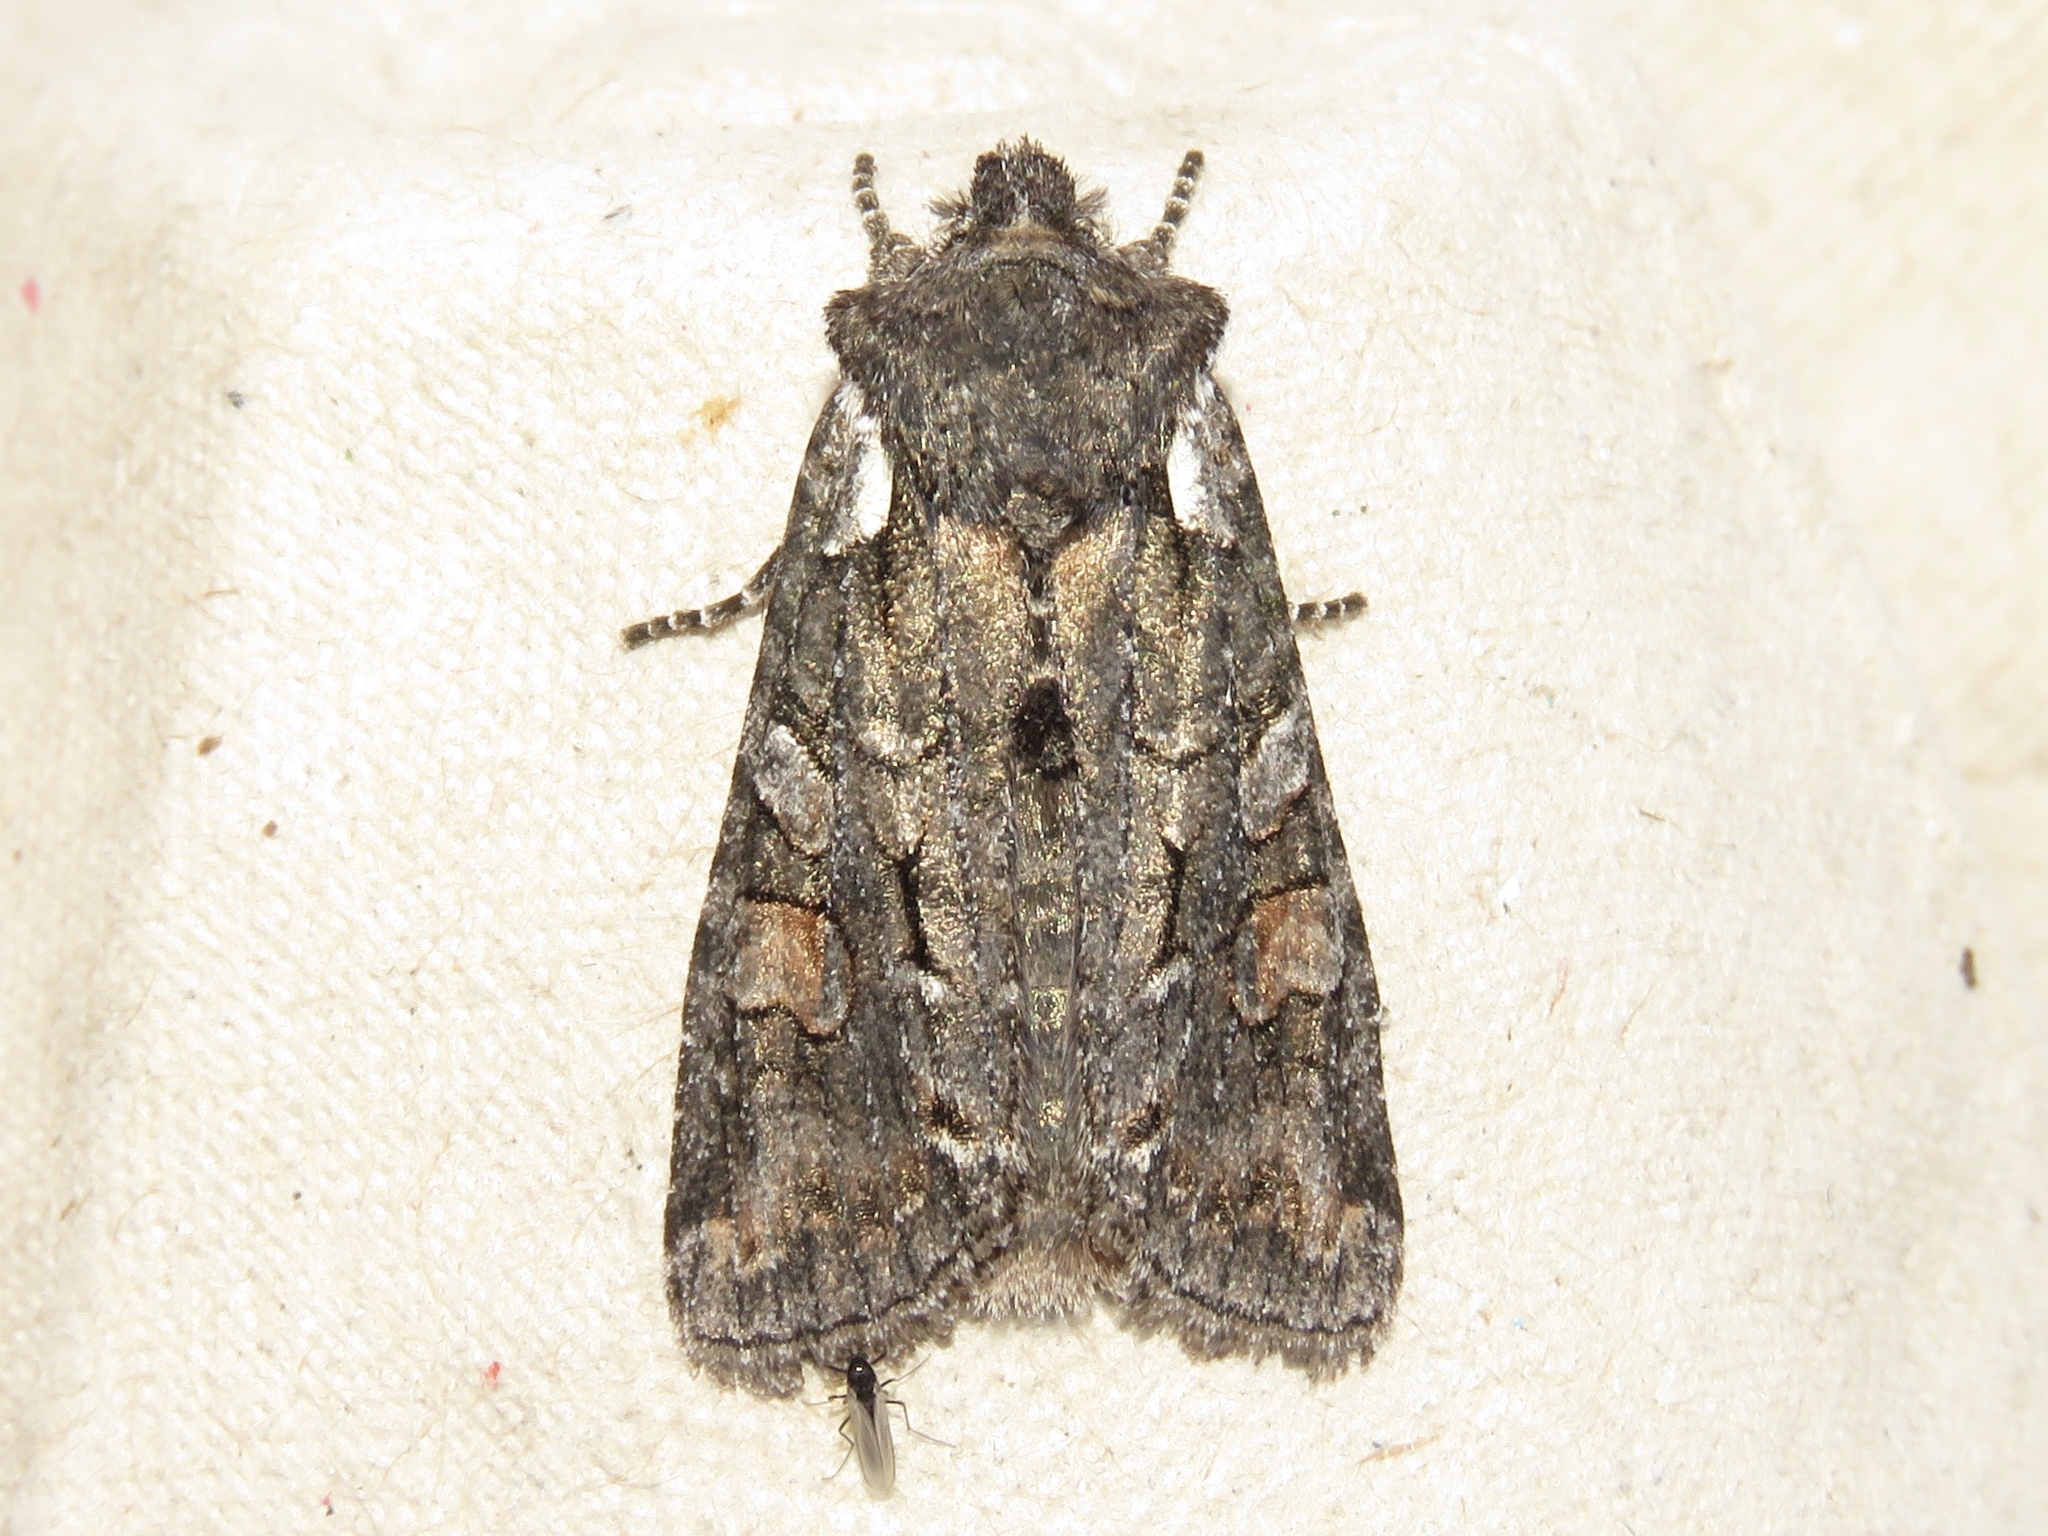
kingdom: Animalia
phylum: Arthropoda
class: Insecta
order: Lepidoptera
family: Noctuidae
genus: Lithophane
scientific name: Lithophane pexata
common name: Plush-naped pinion moth
